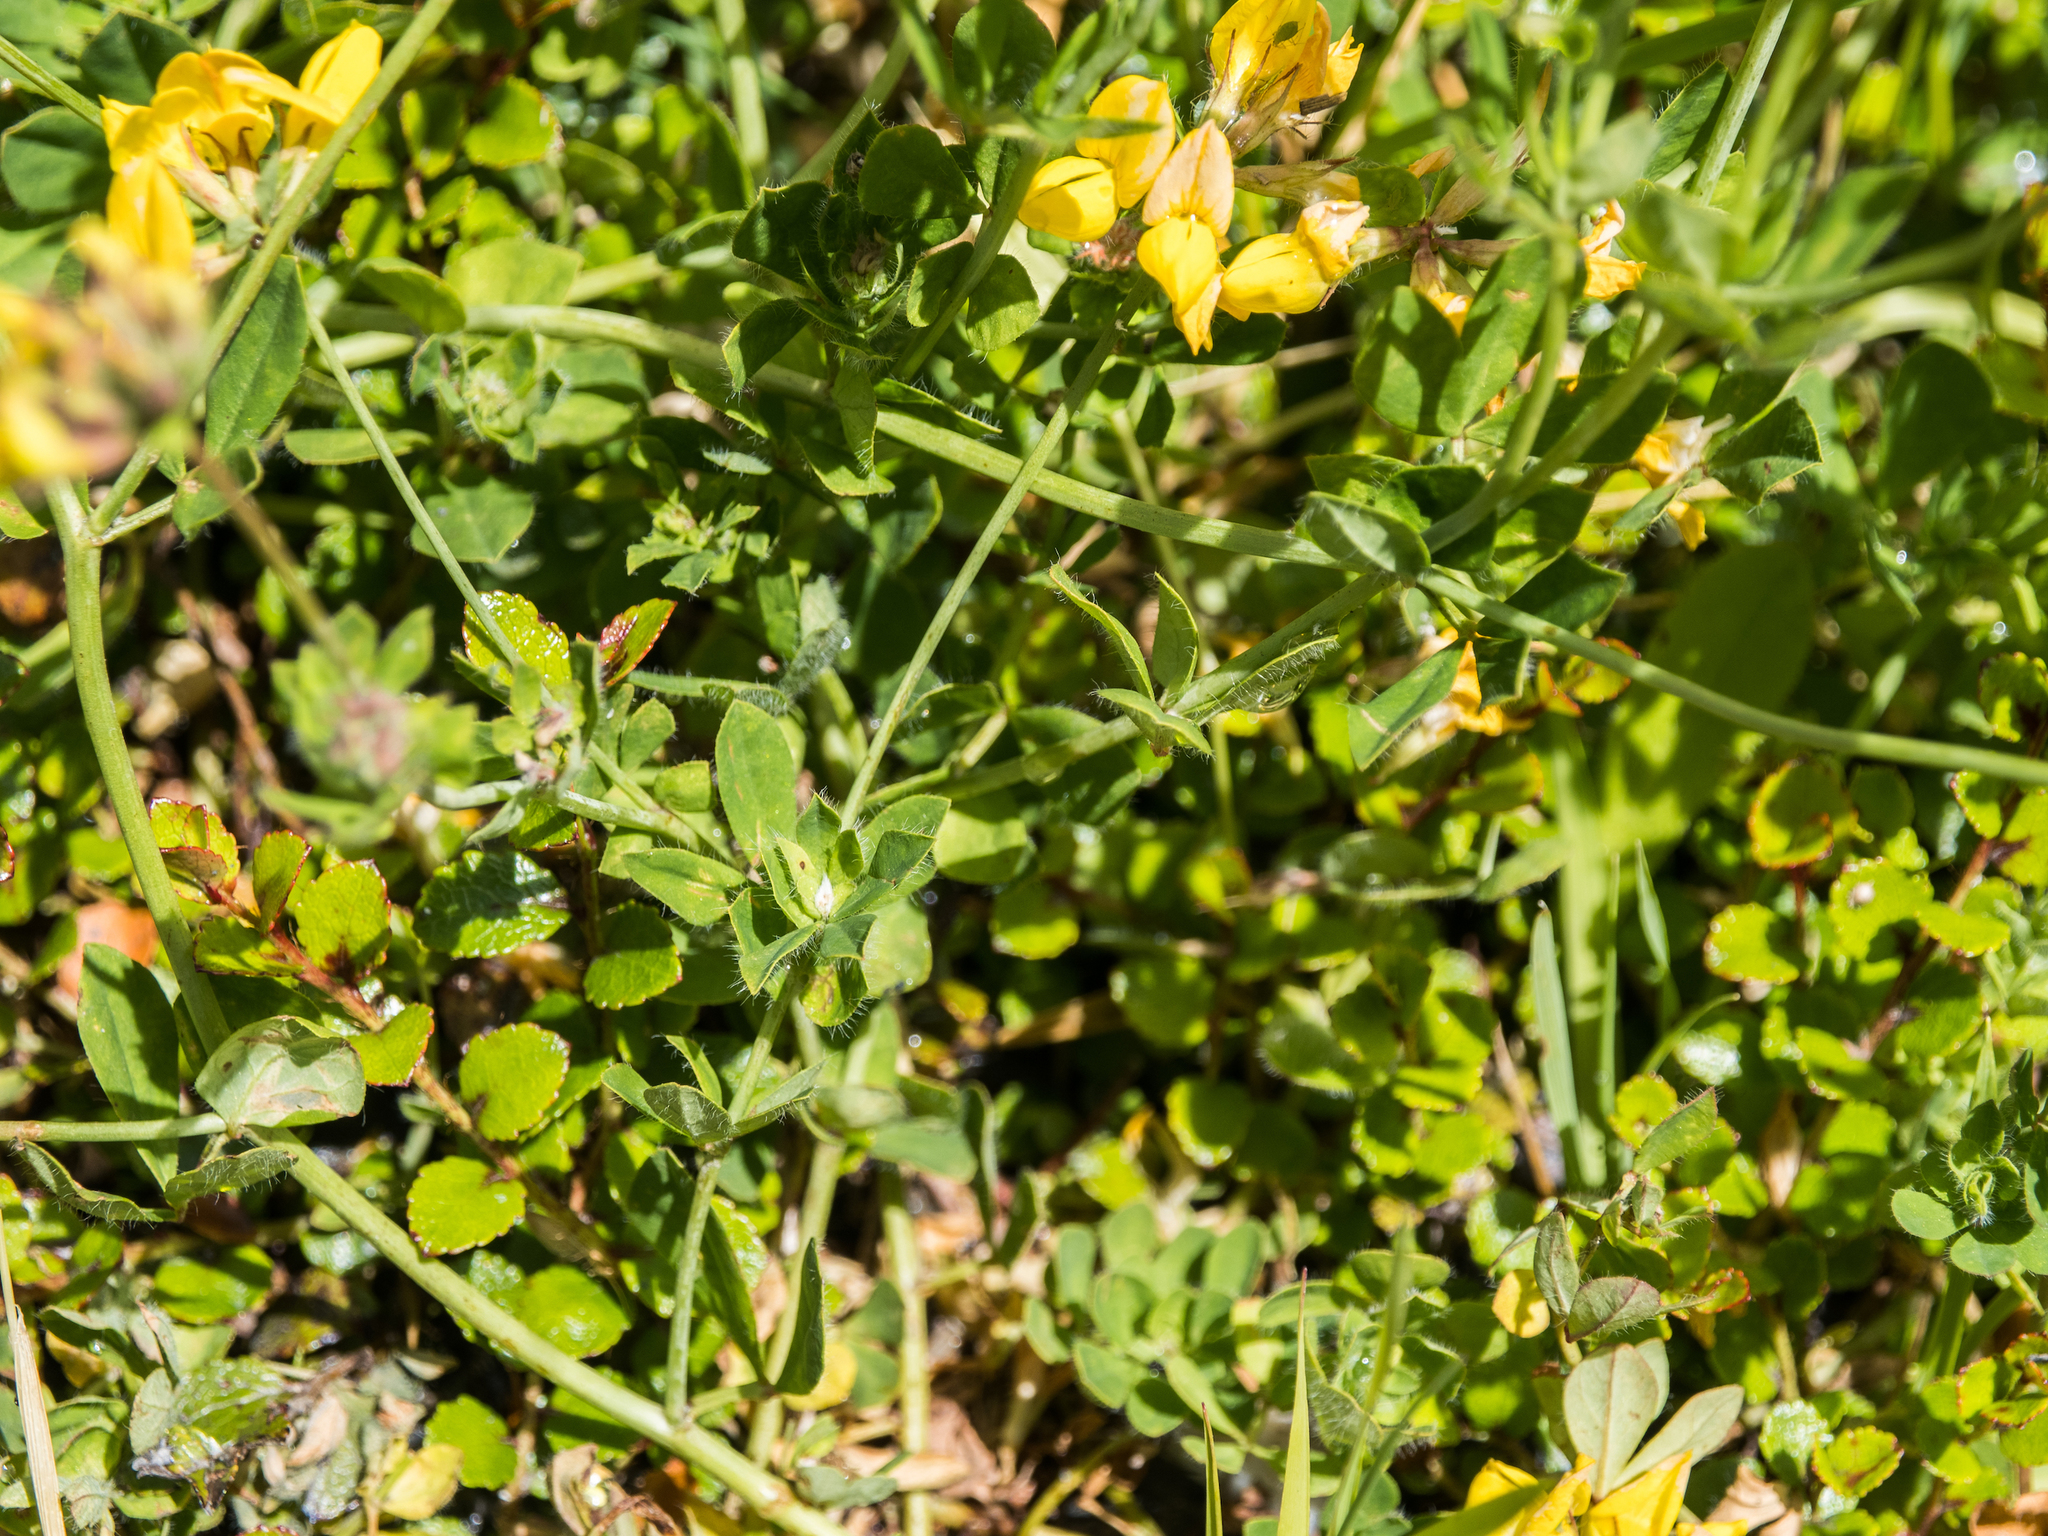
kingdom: Plantae
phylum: Tracheophyta
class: Magnoliopsida
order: Fabales
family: Fabaceae
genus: Lotus
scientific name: Lotus subbiflorus
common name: Hairy bird's-foot trefoil
